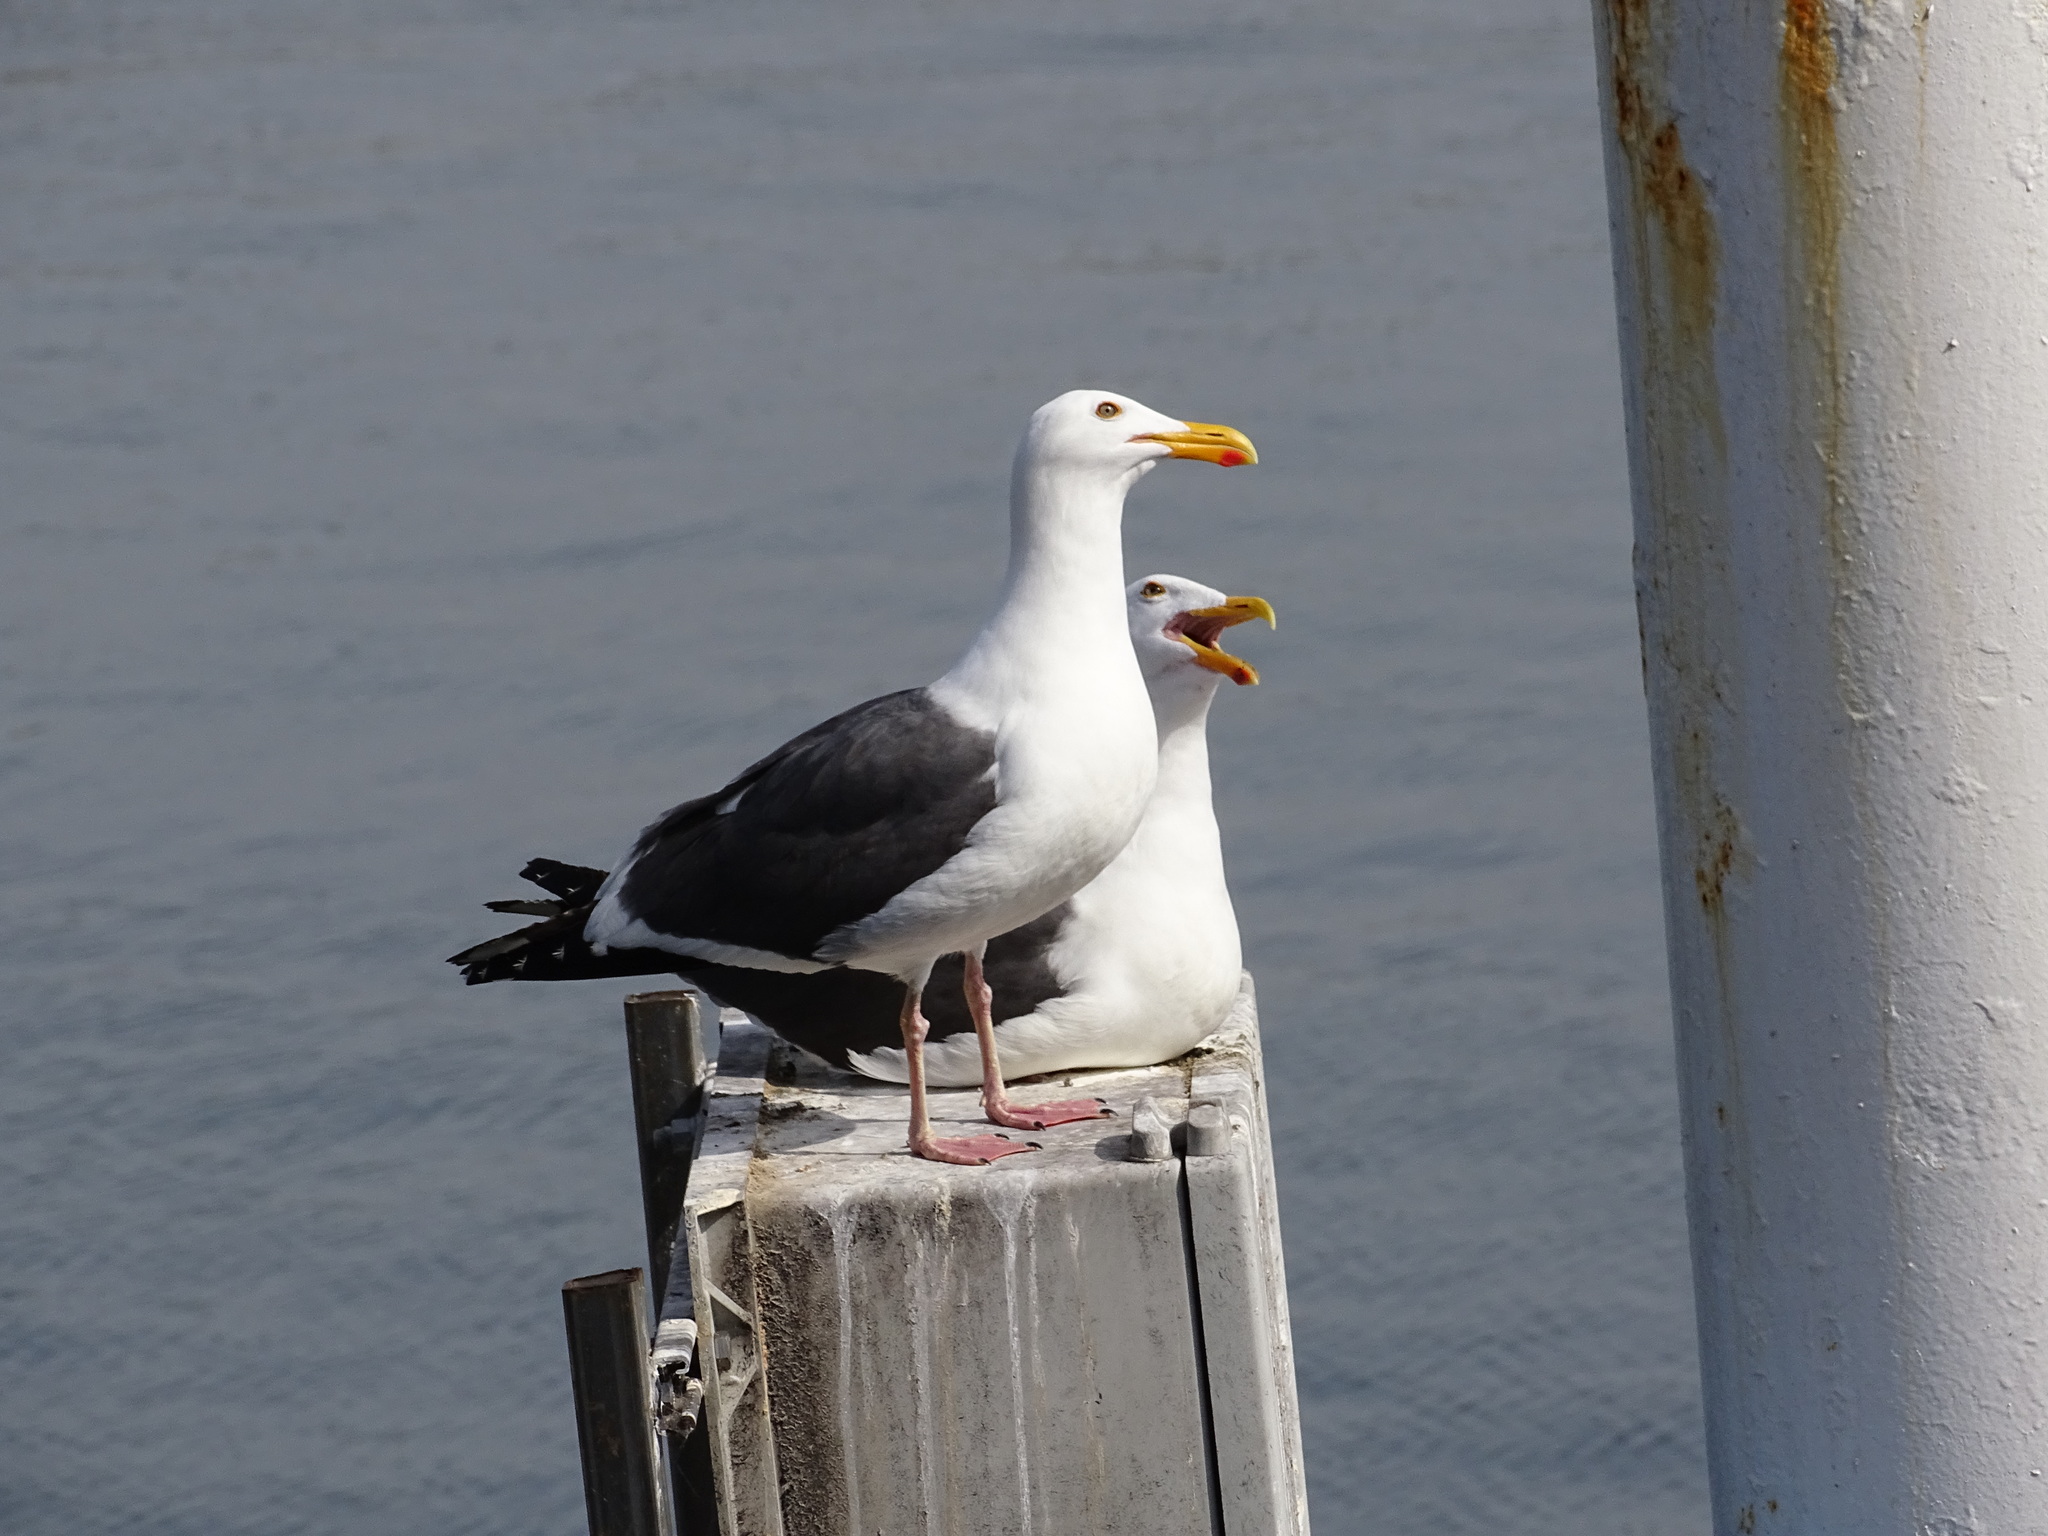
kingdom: Animalia
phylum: Chordata
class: Aves
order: Charadriiformes
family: Laridae
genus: Larus
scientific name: Larus occidentalis
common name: Western gull
